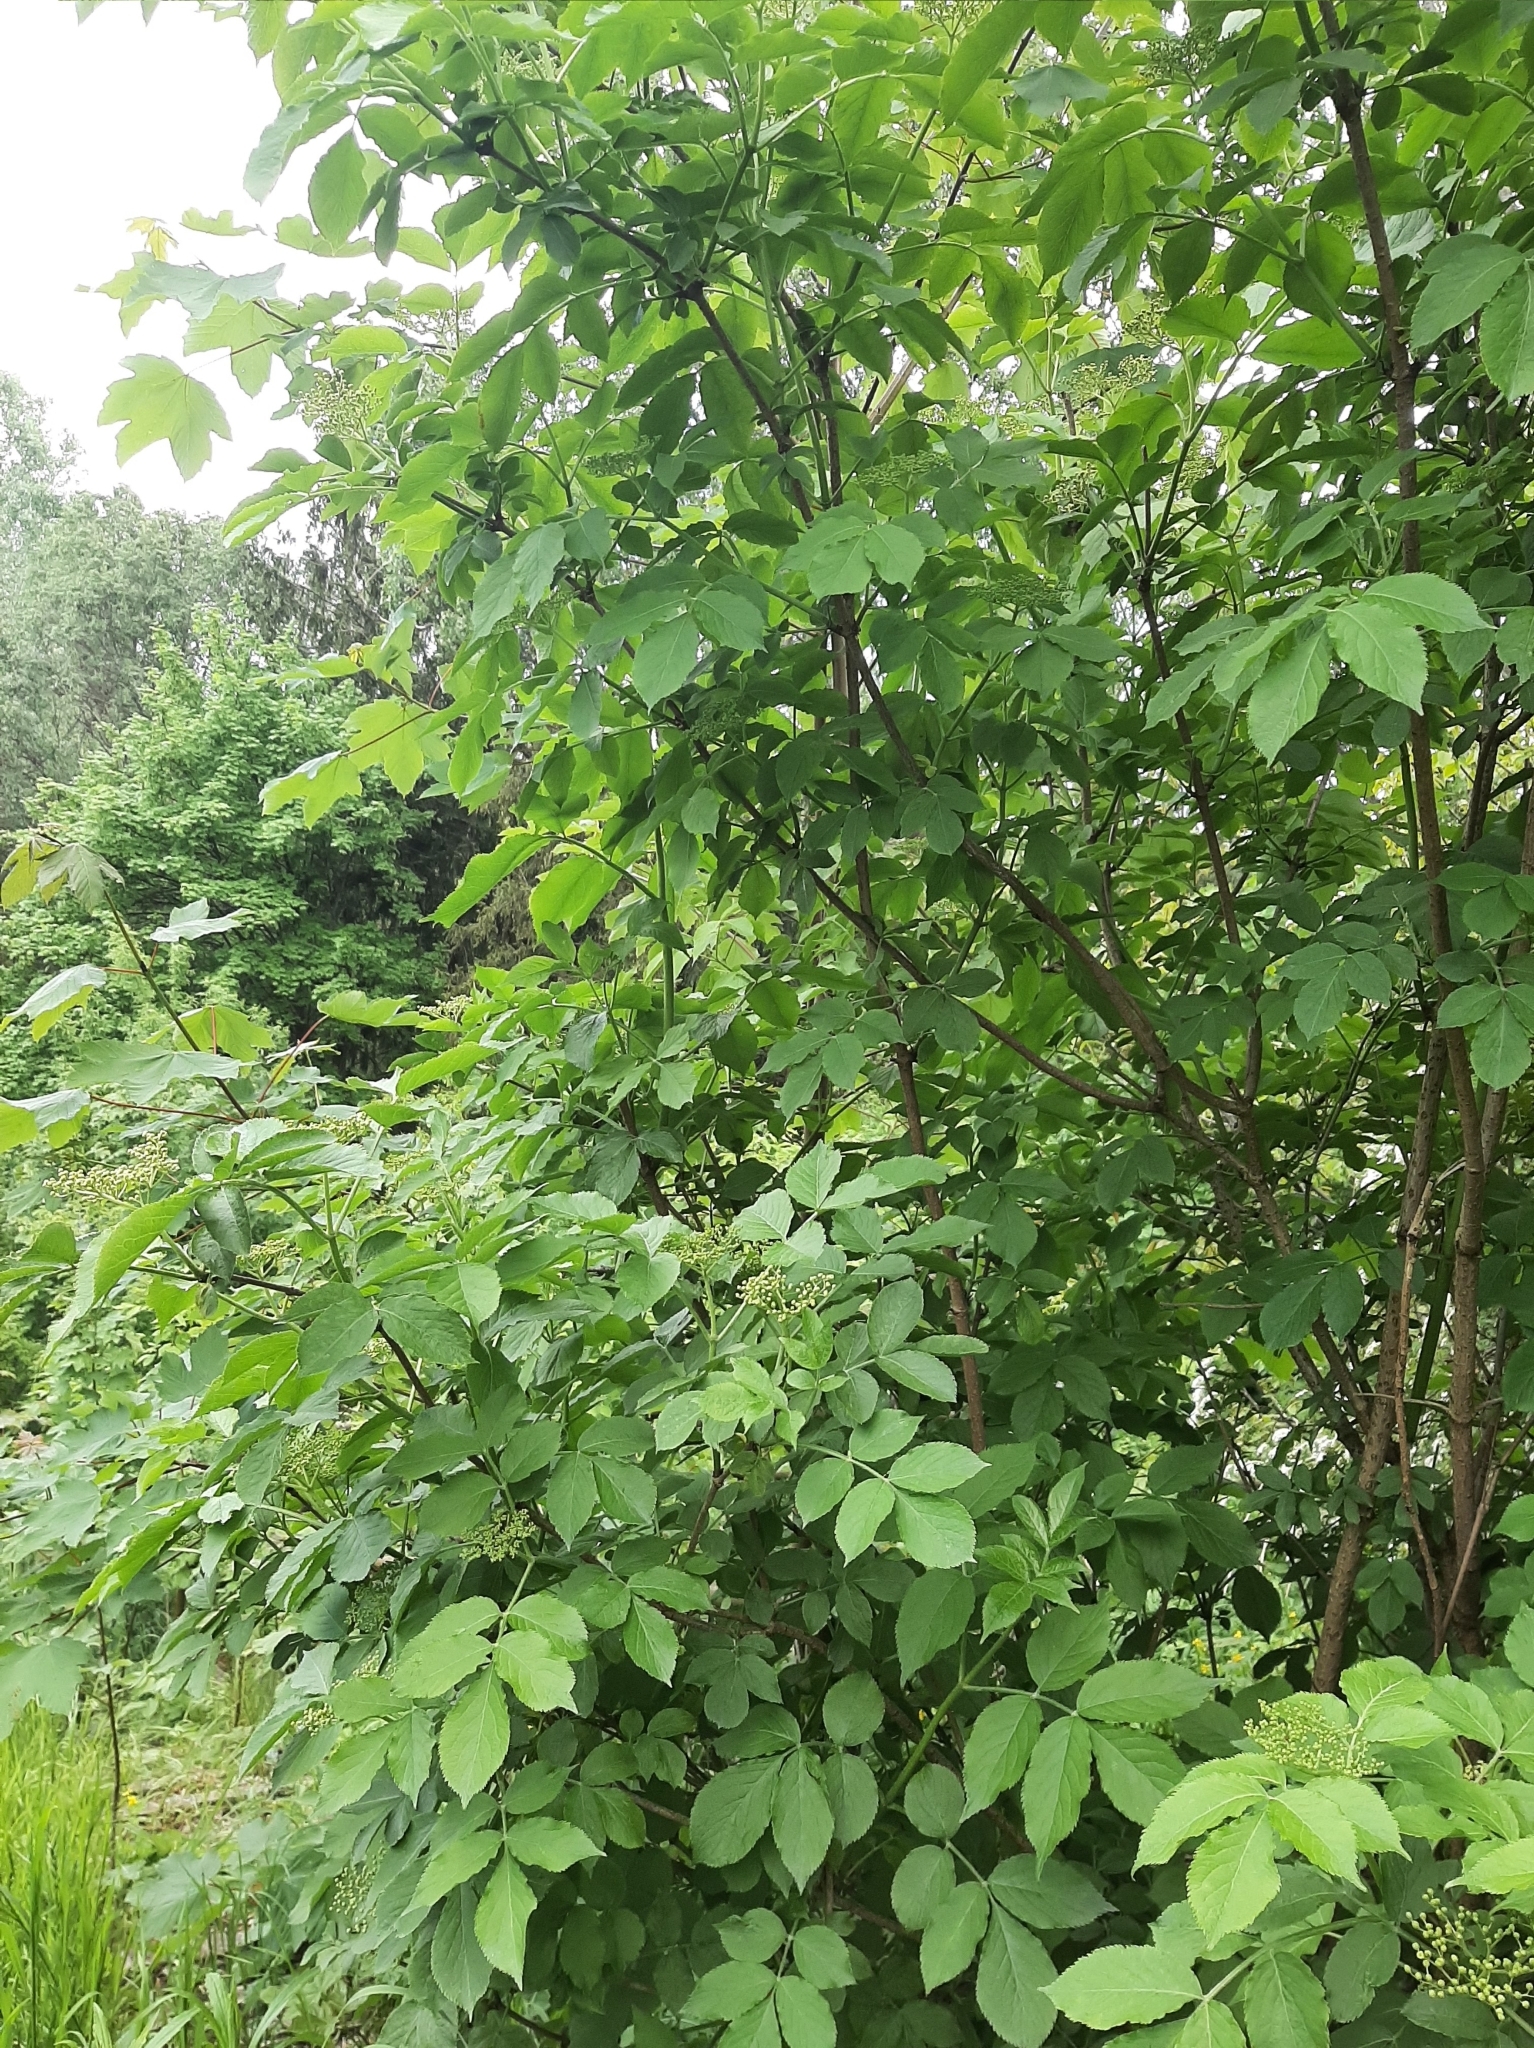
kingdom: Plantae
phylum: Tracheophyta
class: Magnoliopsida
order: Dipsacales
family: Viburnaceae
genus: Sambucus
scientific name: Sambucus nigra
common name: Elder
